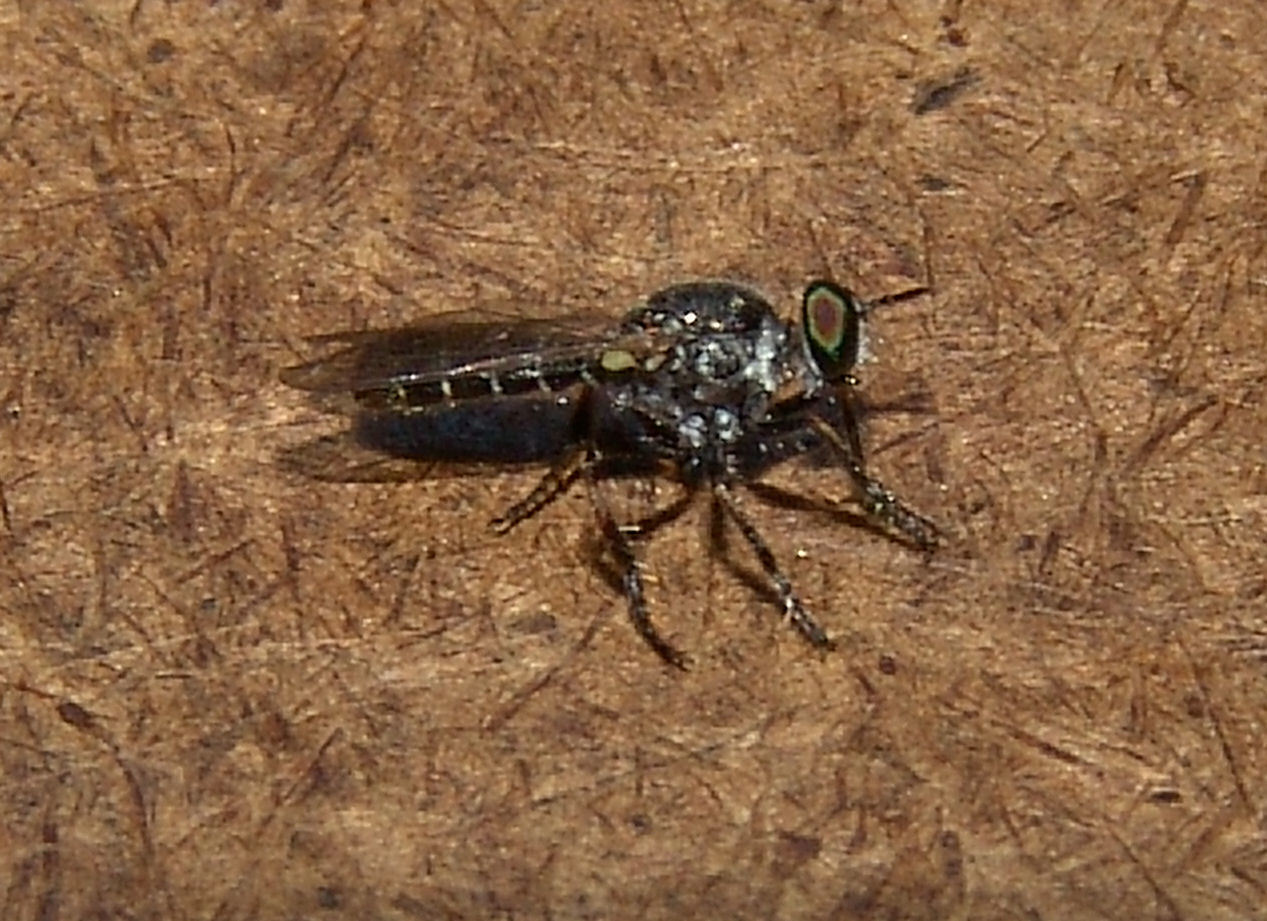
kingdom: Animalia
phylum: Arthropoda
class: Insecta
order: Diptera
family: Asilidae
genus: Atomosia
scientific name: Atomosia puella
